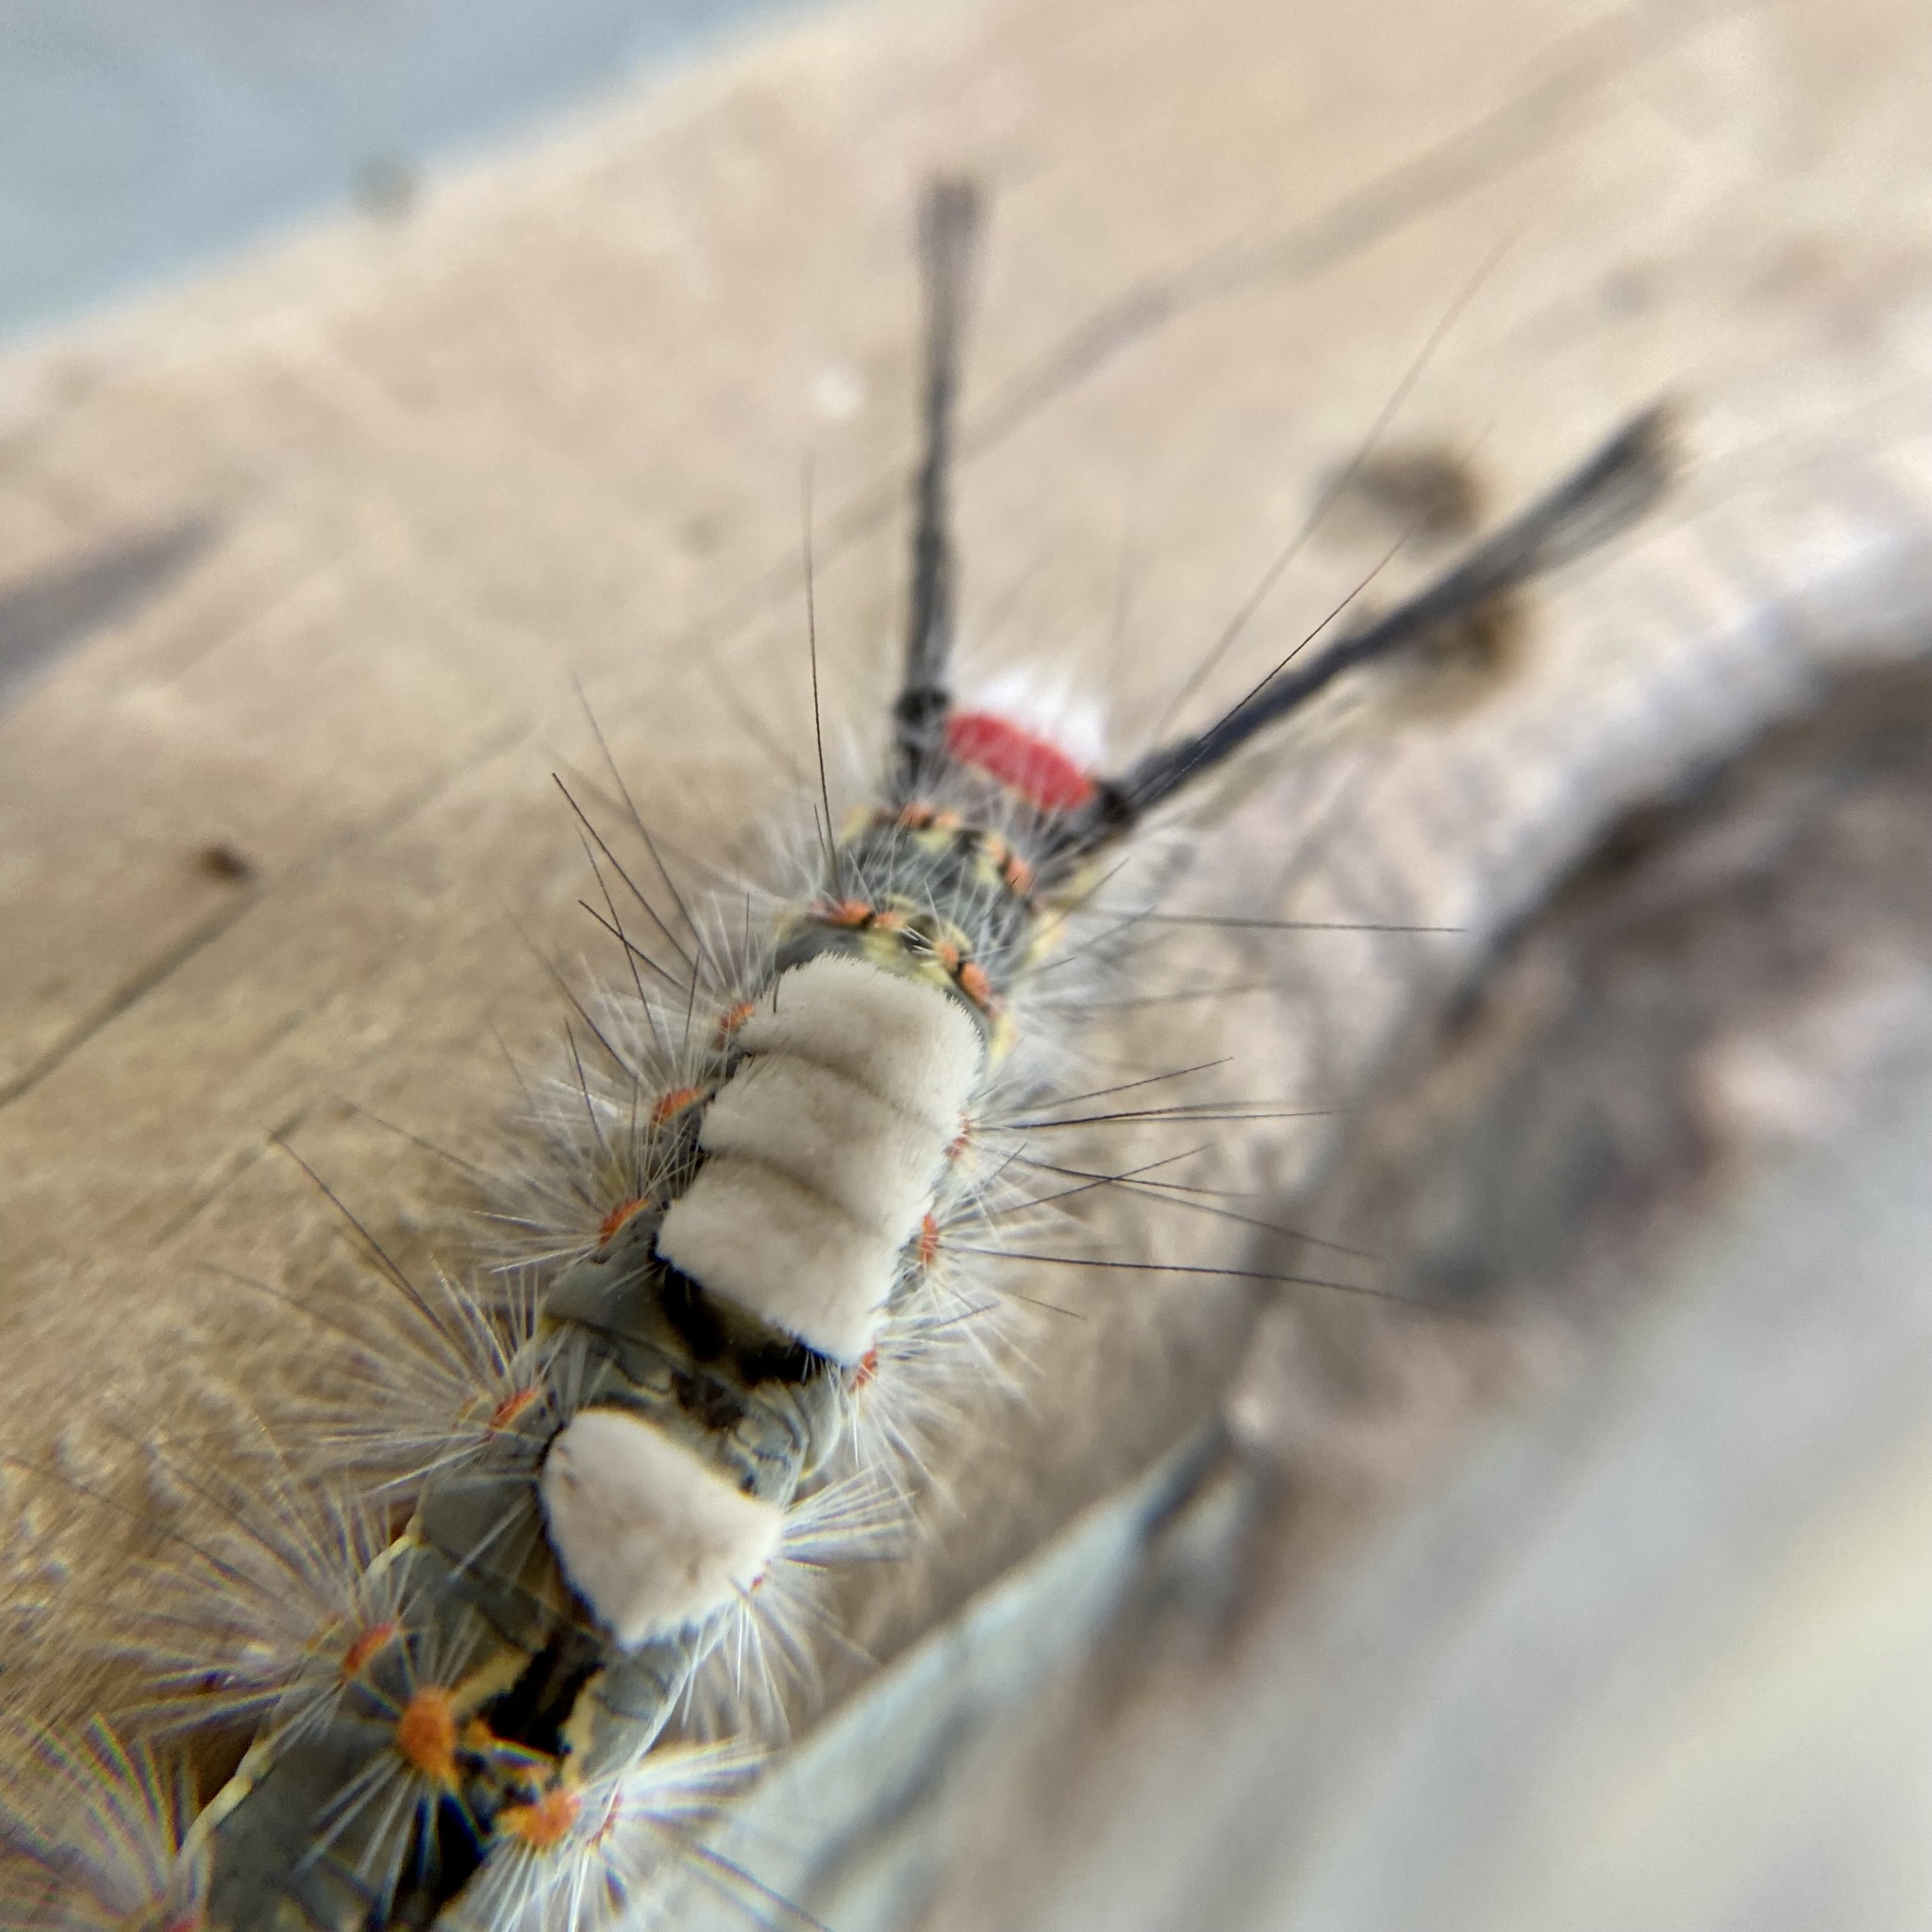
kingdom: Animalia
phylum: Arthropoda
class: Insecta
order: Lepidoptera
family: Erebidae
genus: Orgyia
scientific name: Orgyia detrita
